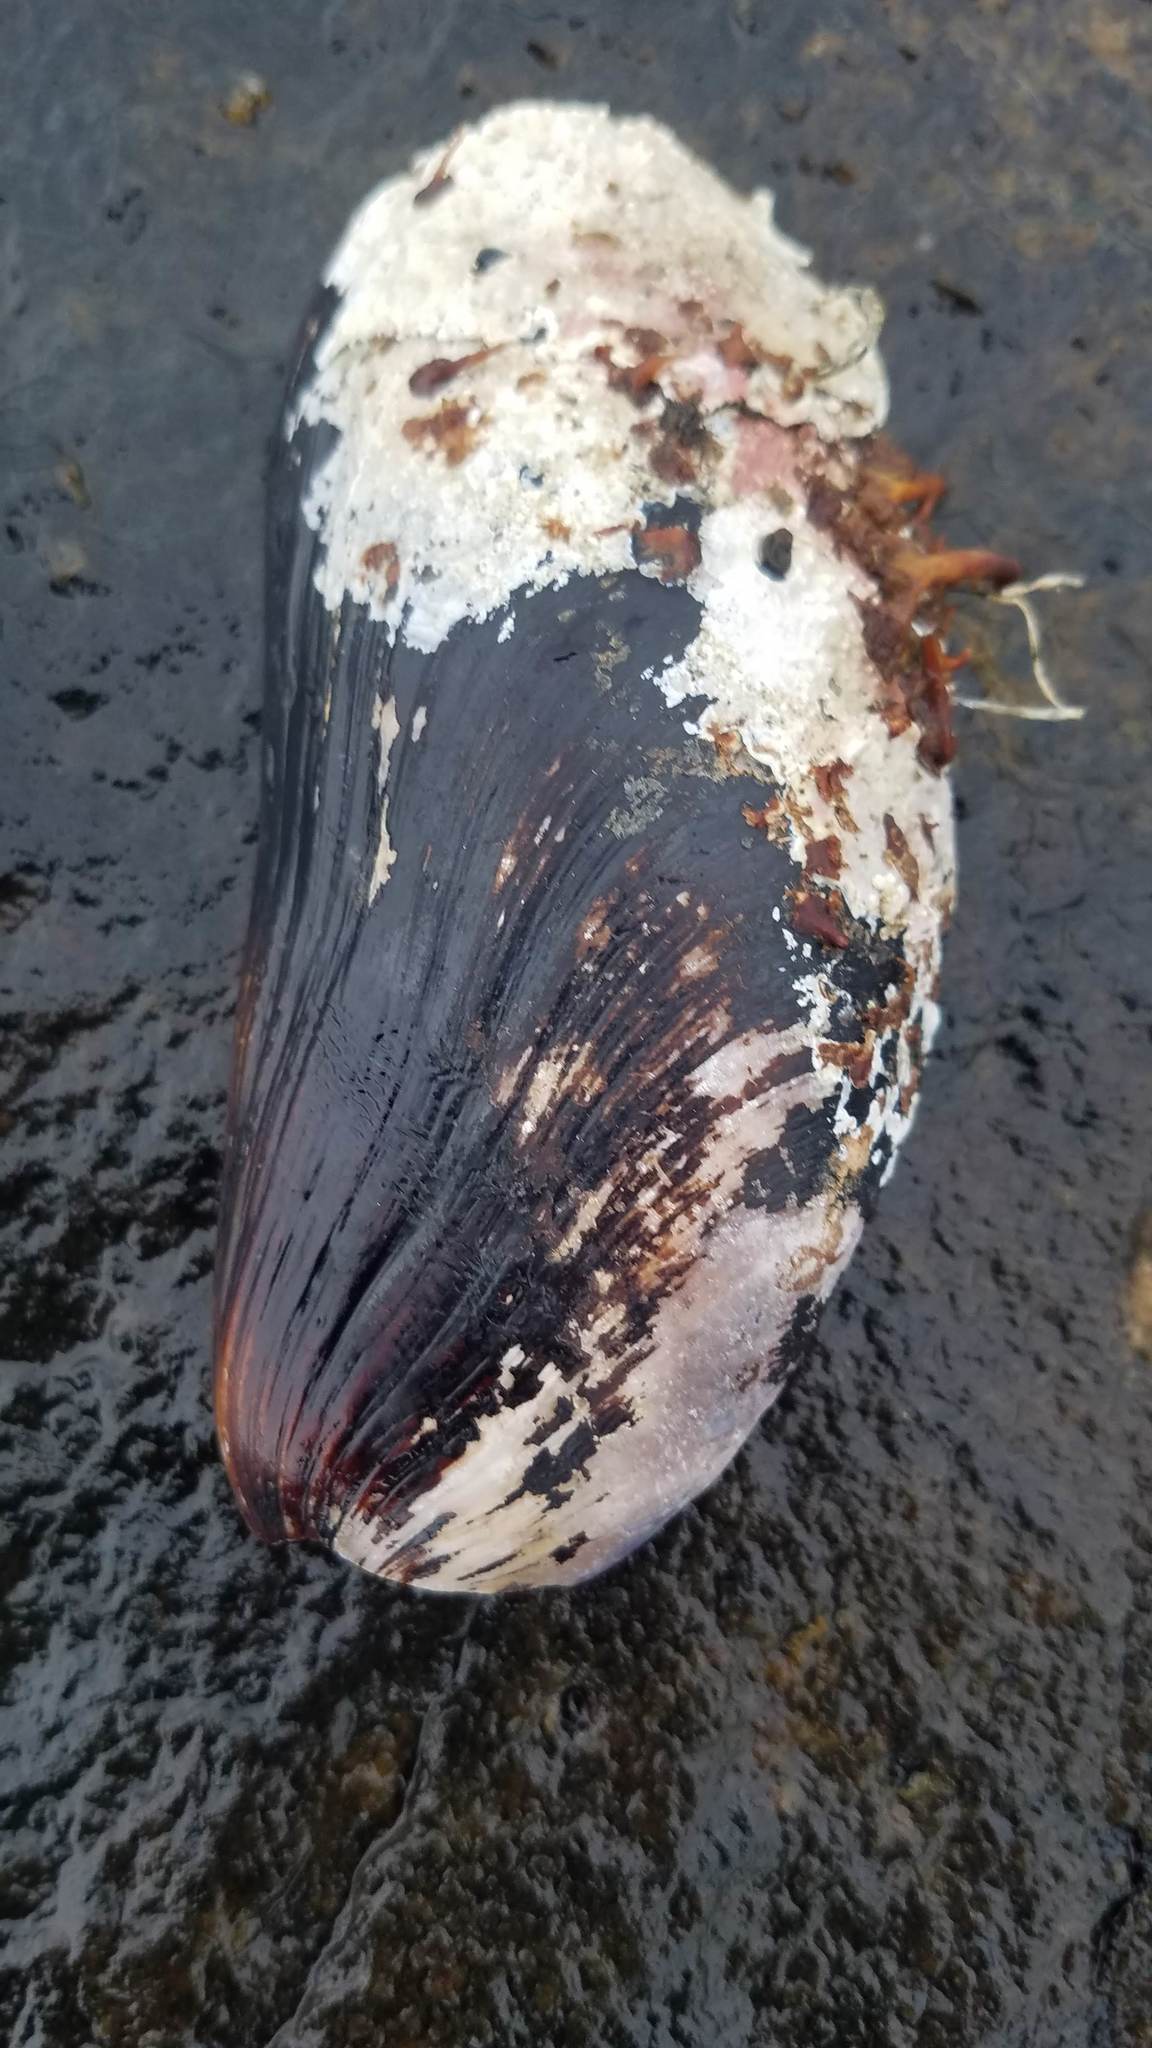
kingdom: Animalia
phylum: Mollusca
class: Bivalvia
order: Mytilida
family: Mytilidae
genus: Modiolus
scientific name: Modiolus modiolus
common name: Horse-mussel
